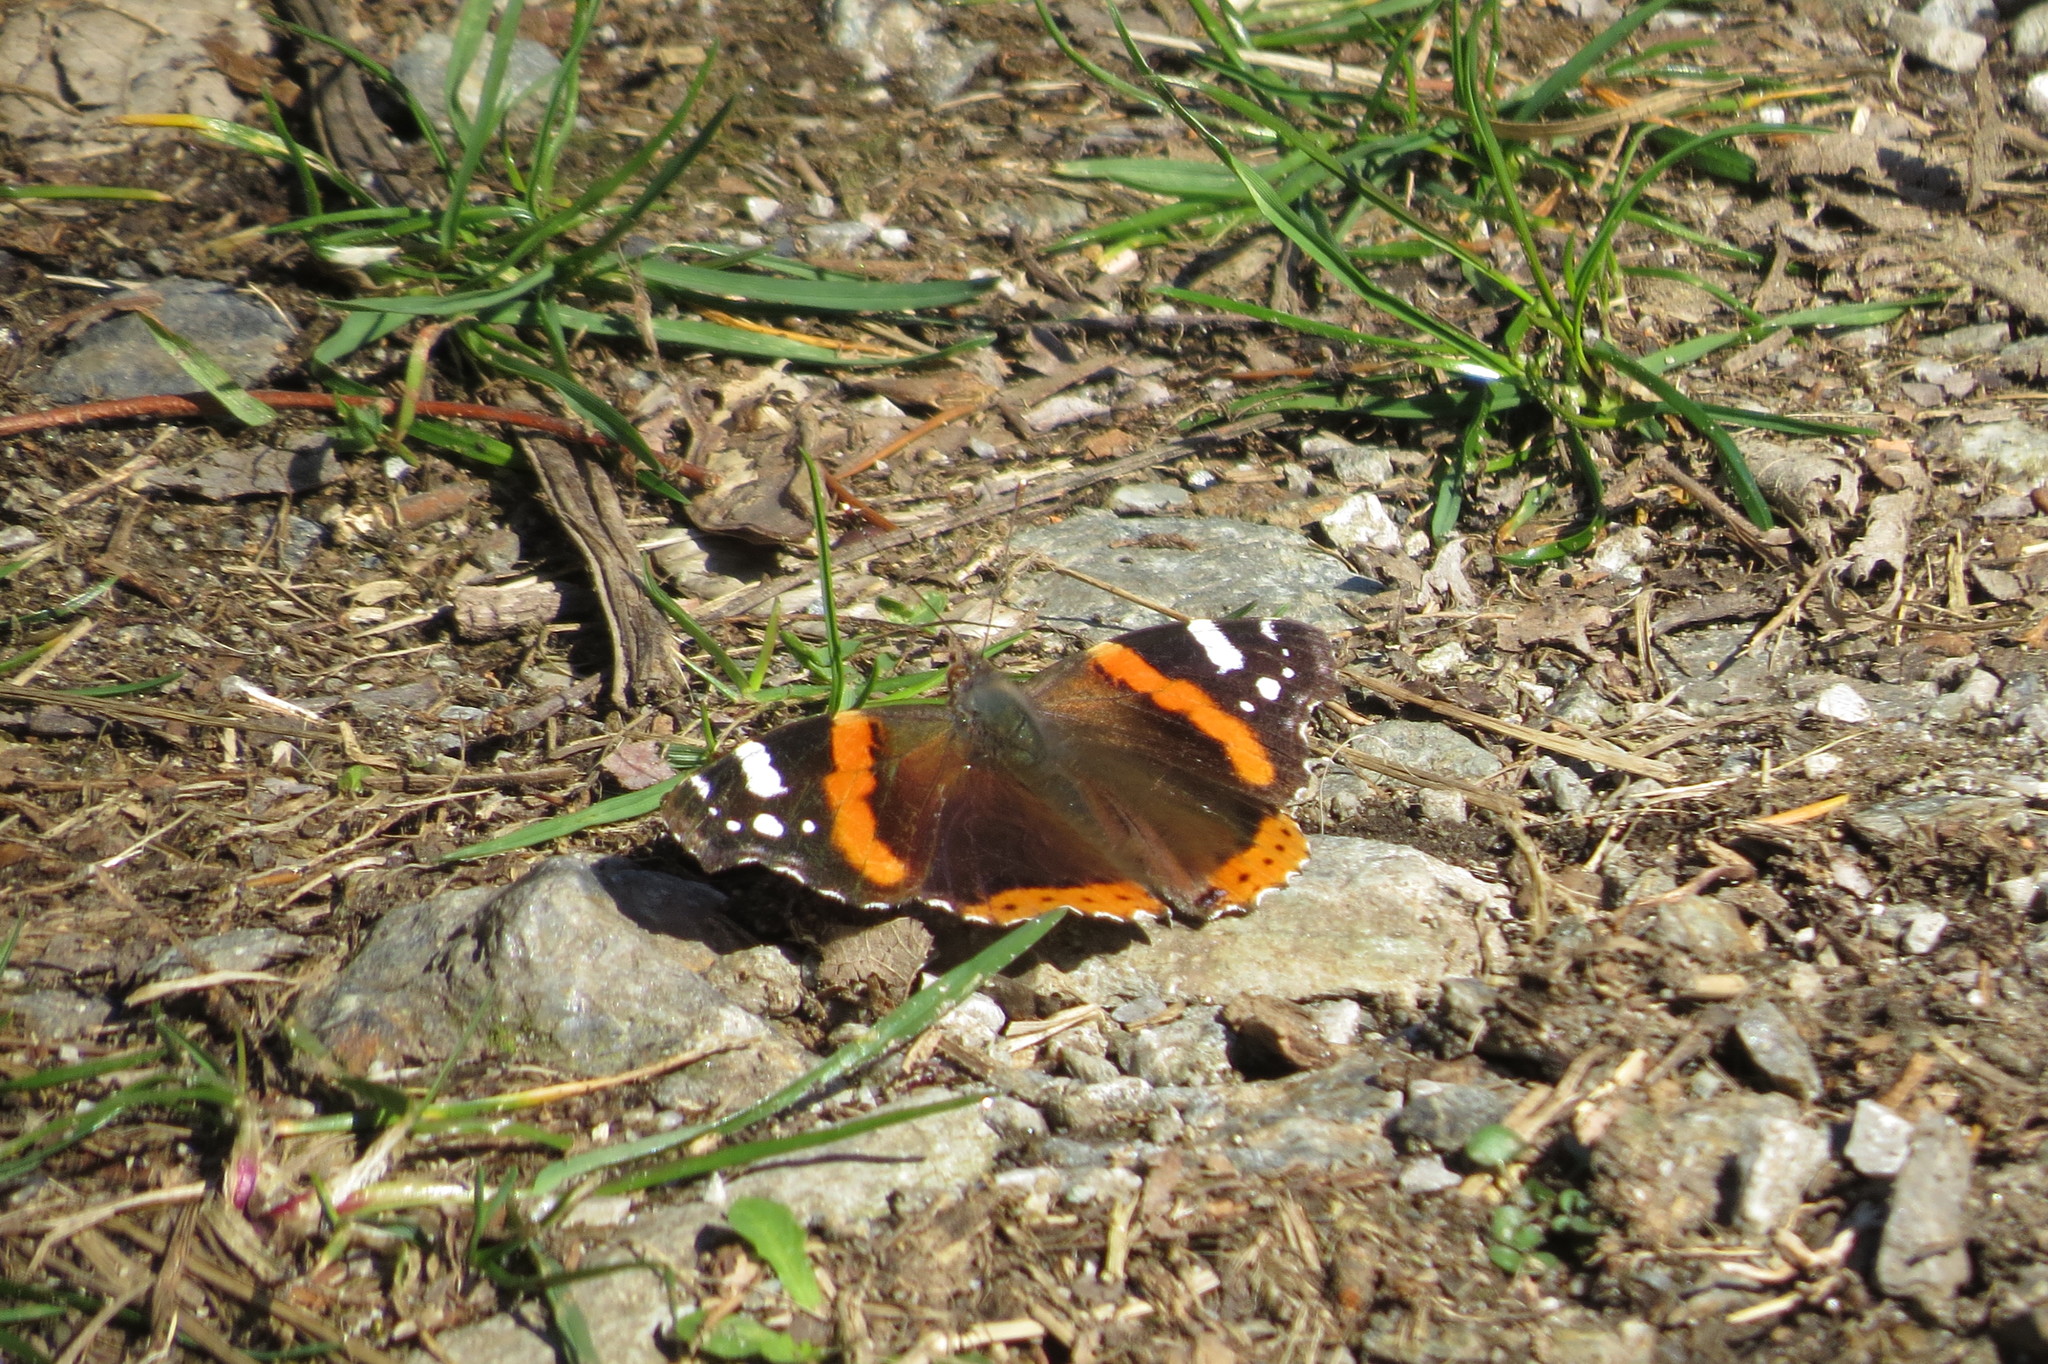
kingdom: Animalia
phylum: Arthropoda
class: Insecta
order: Lepidoptera
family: Nymphalidae
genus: Vanessa
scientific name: Vanessa atalanta
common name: Red admiral
